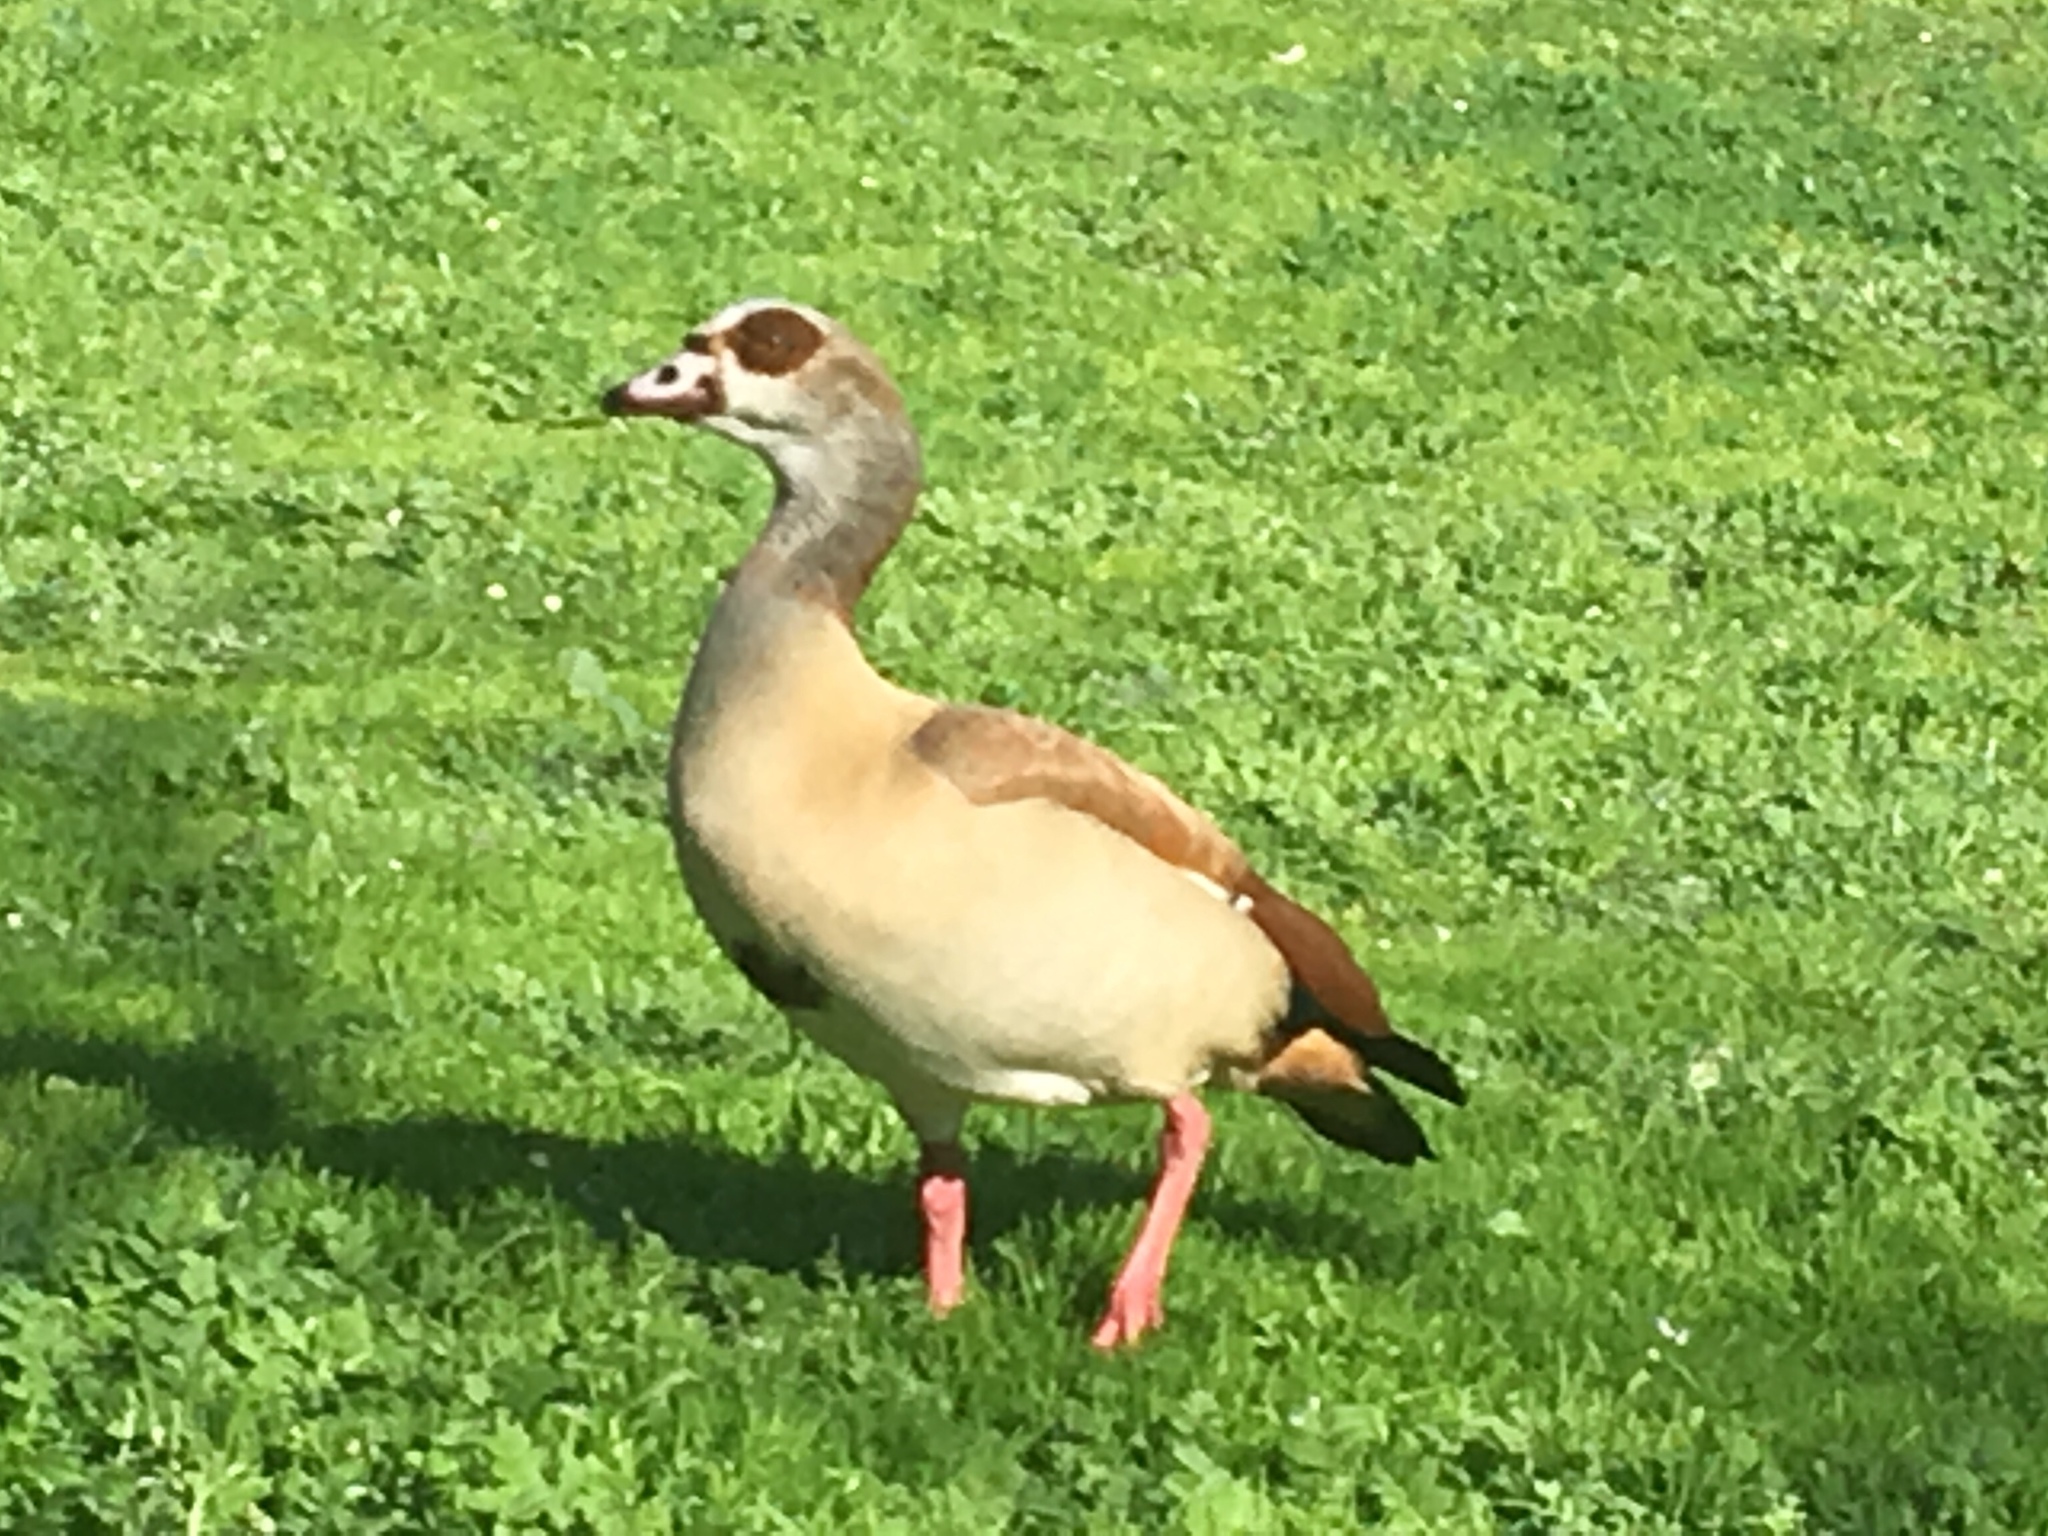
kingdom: Animalia
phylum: Chordata
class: Aves
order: Anseriformes
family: Anatidae
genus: Alopochen
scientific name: Alopochen aegyptiaca
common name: Egyptian goose
